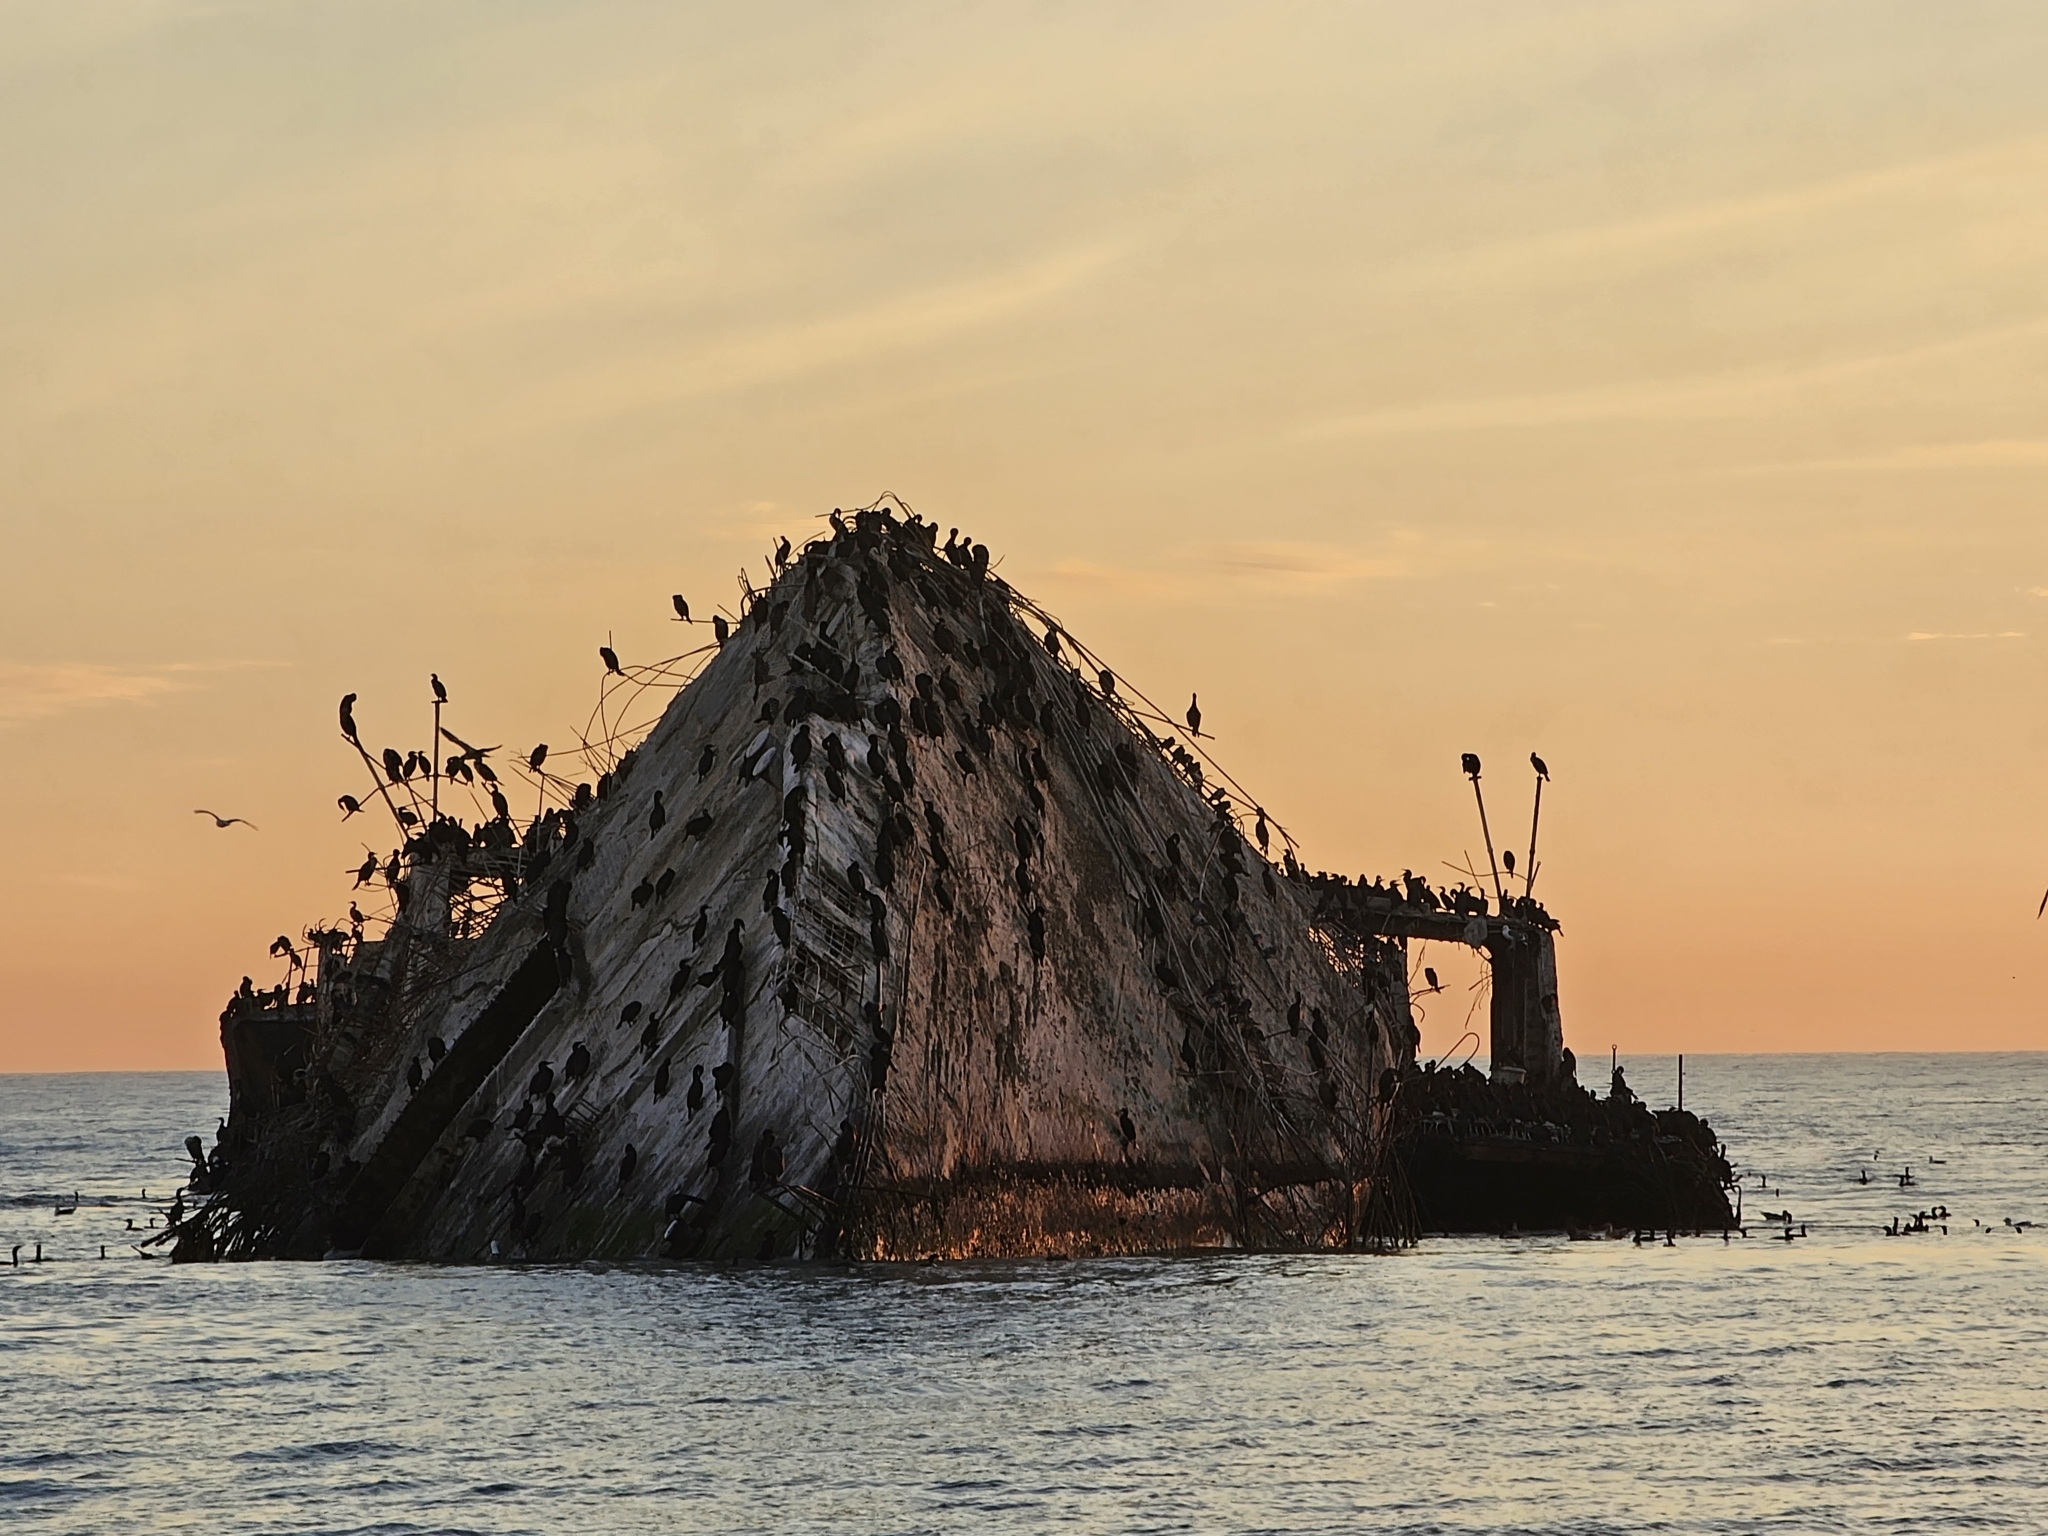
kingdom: Animalia
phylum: Chordata
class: Aves
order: Suliformes
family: Phalacrocoracidae
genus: Urile
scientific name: Urile penicillatus
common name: Brandt's cormorant
